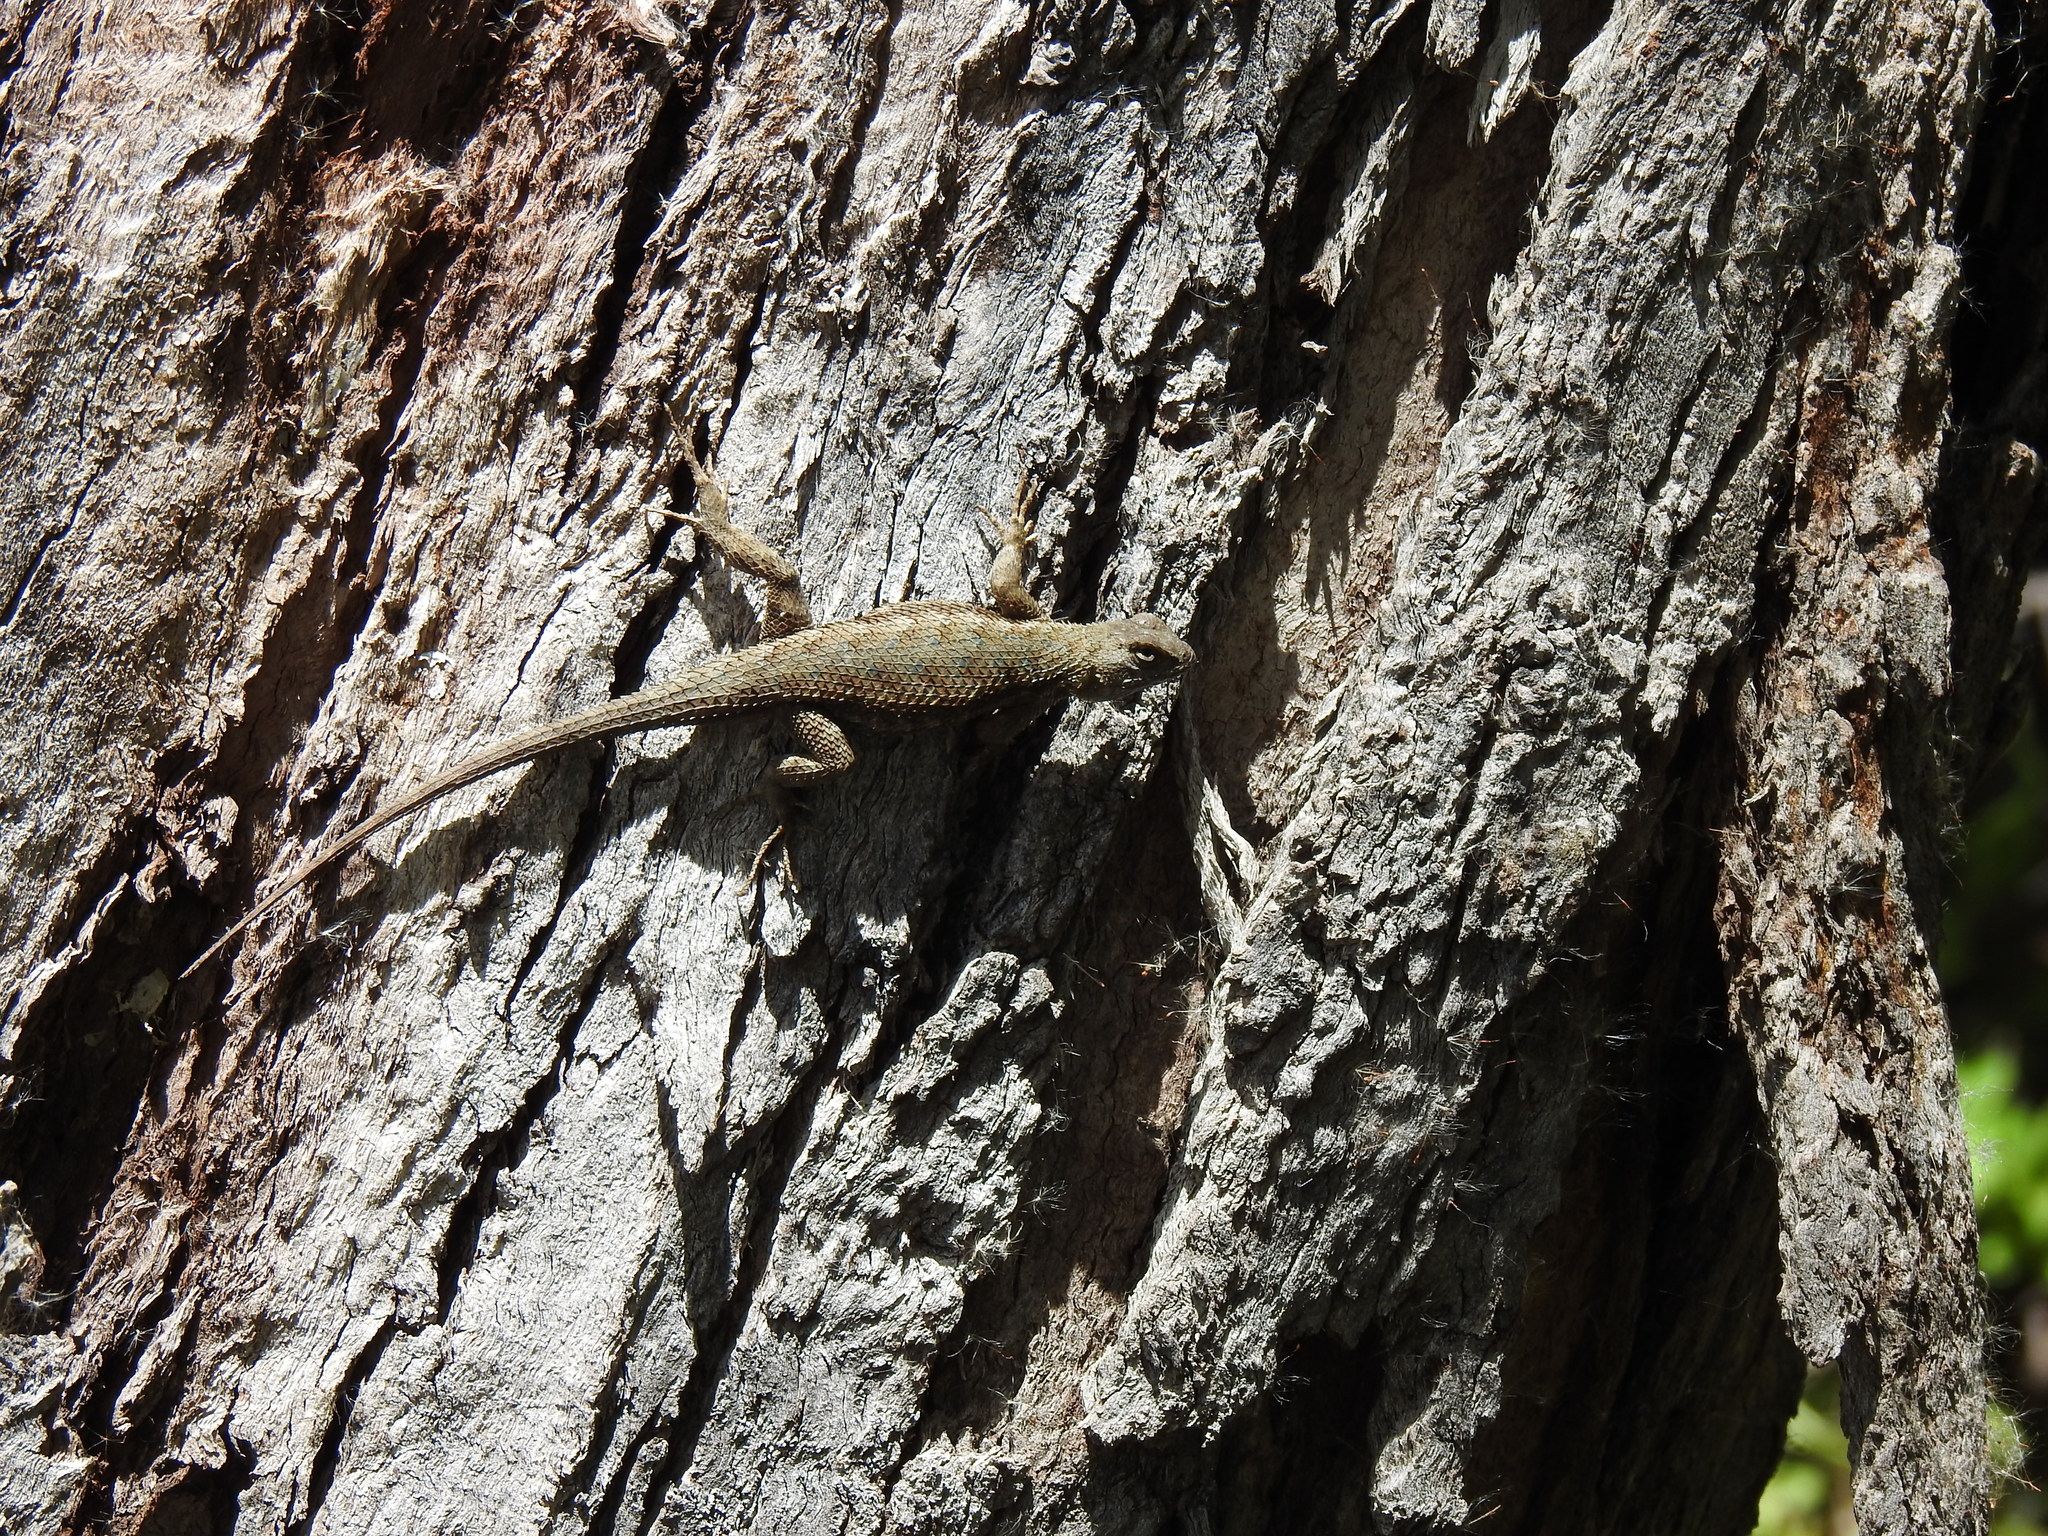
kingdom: Animalia
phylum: Chordata
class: Squamata
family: Phrynosomatidae
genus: Sceloporus
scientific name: Sceloporus occidentalis
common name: Western fence lizard
